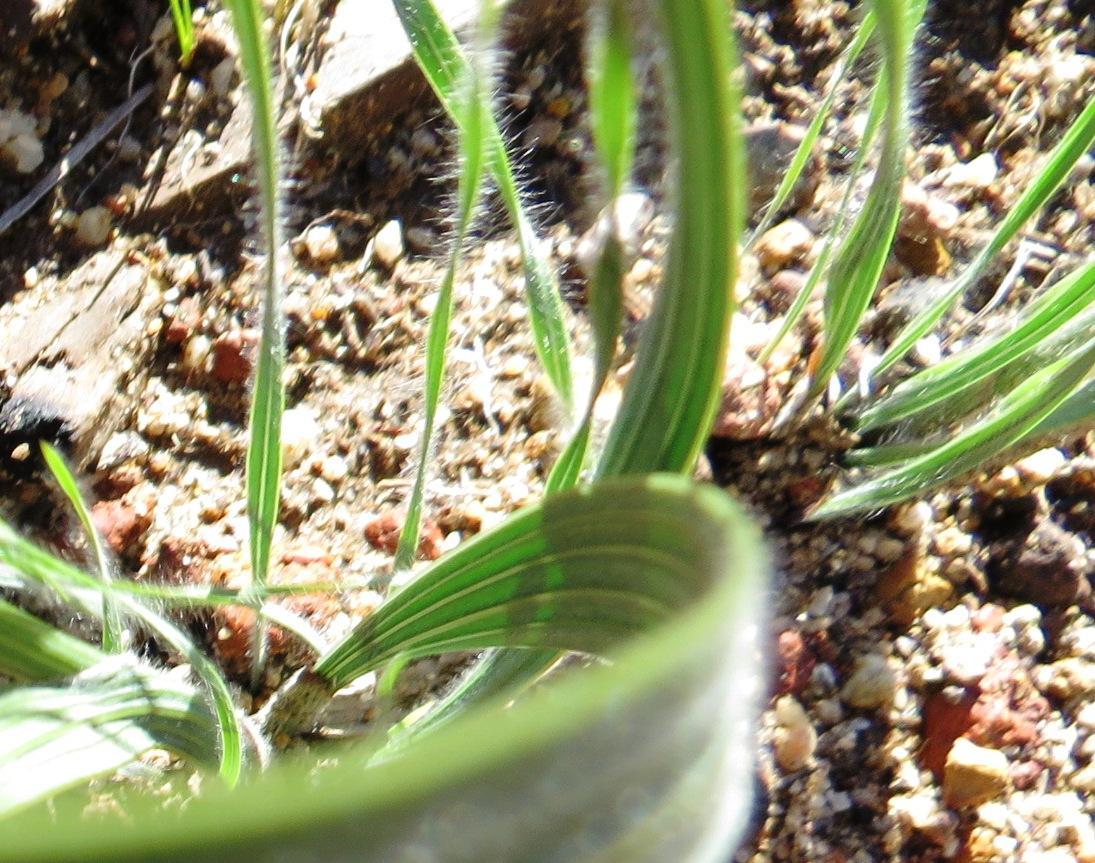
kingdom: Plantae
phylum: Tracheophyta
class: Liliopsida
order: Asparagales
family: Iridaceae
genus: Gladiolus
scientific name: Gladiolus hirsutus
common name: Small pink afrikaner
